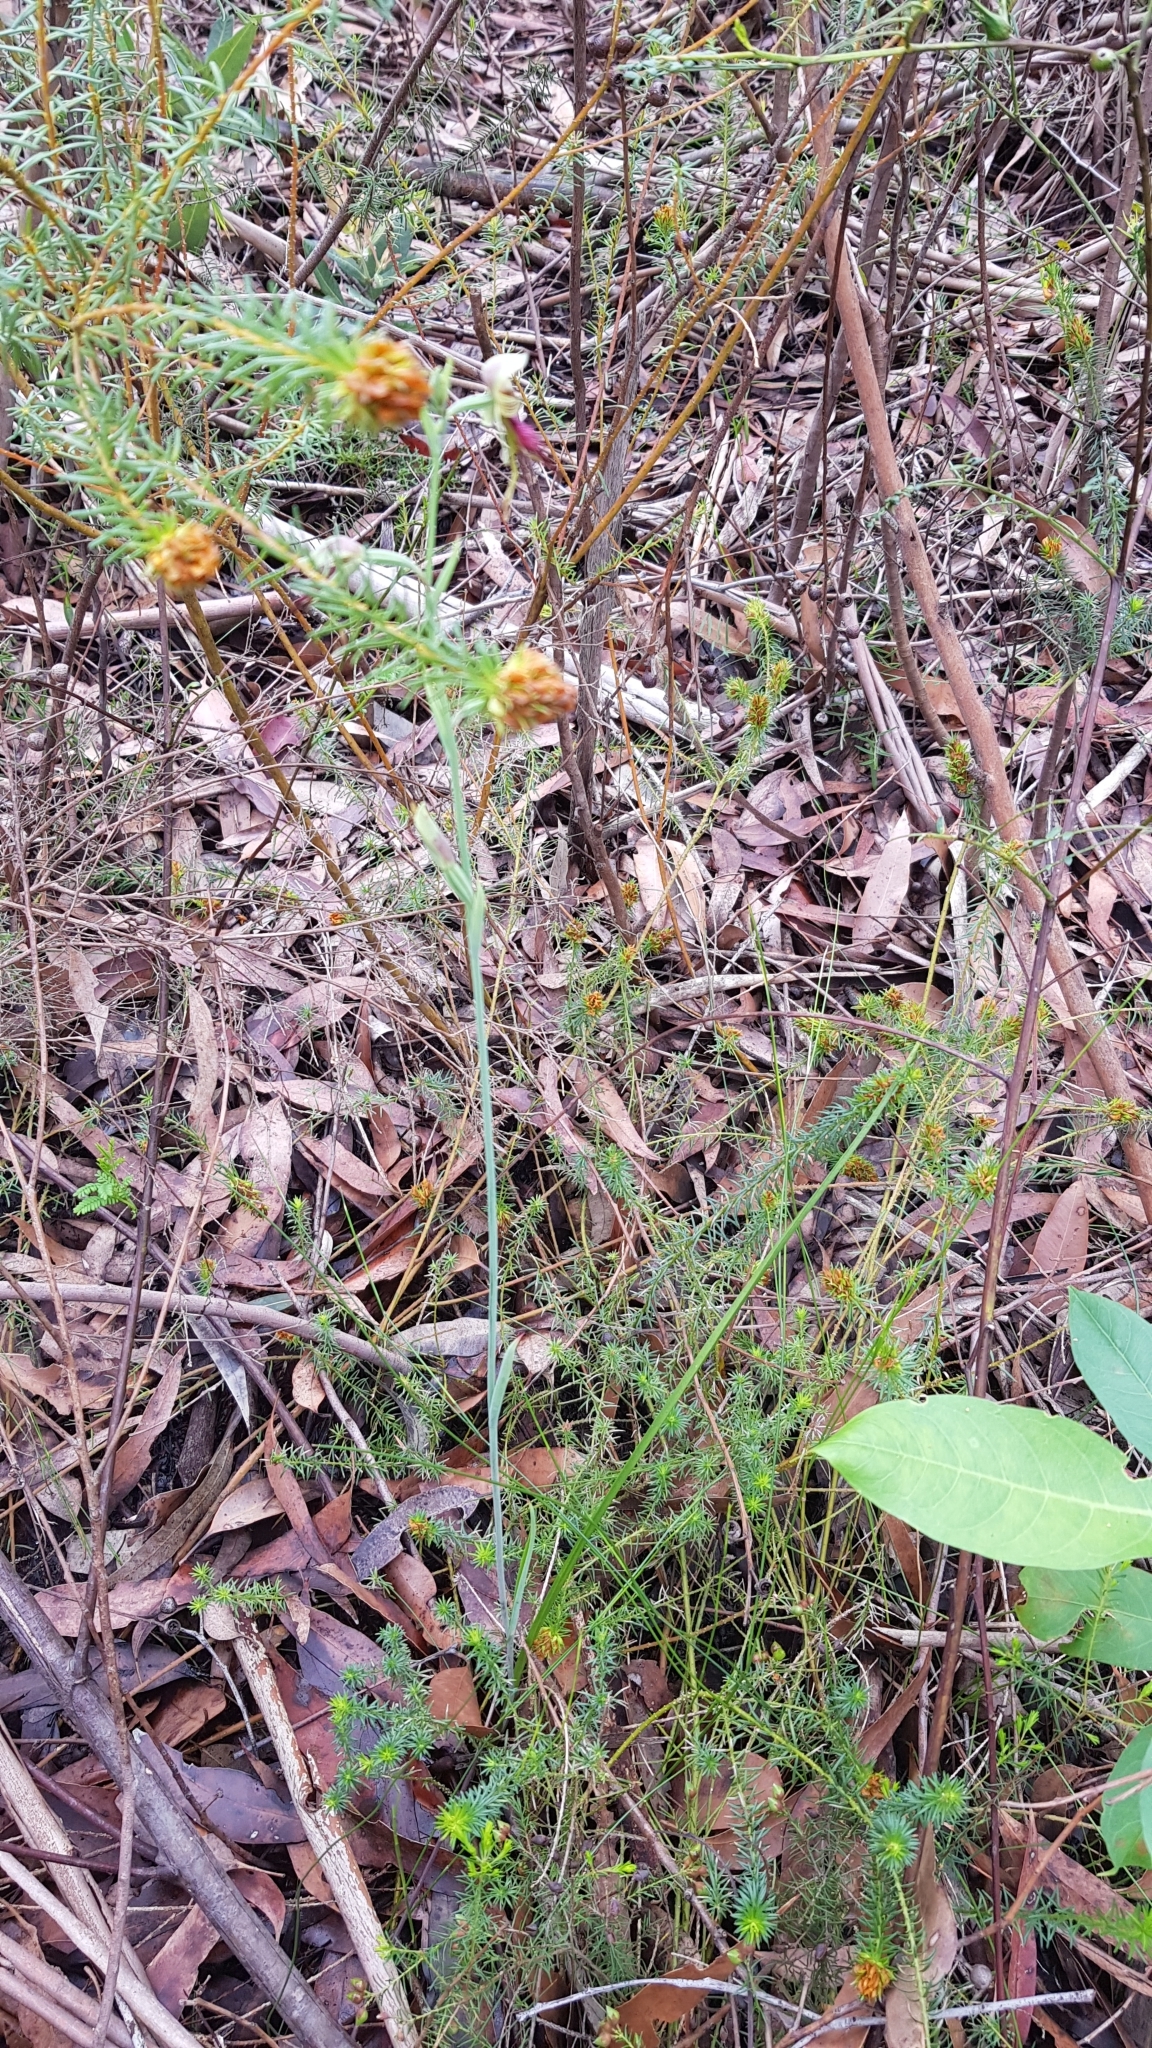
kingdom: Plantae
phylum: Tracheophyta
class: Liliopsida
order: Asparagales
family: Orchidaceae
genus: Calochilus
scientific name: Calochilus paludosus
